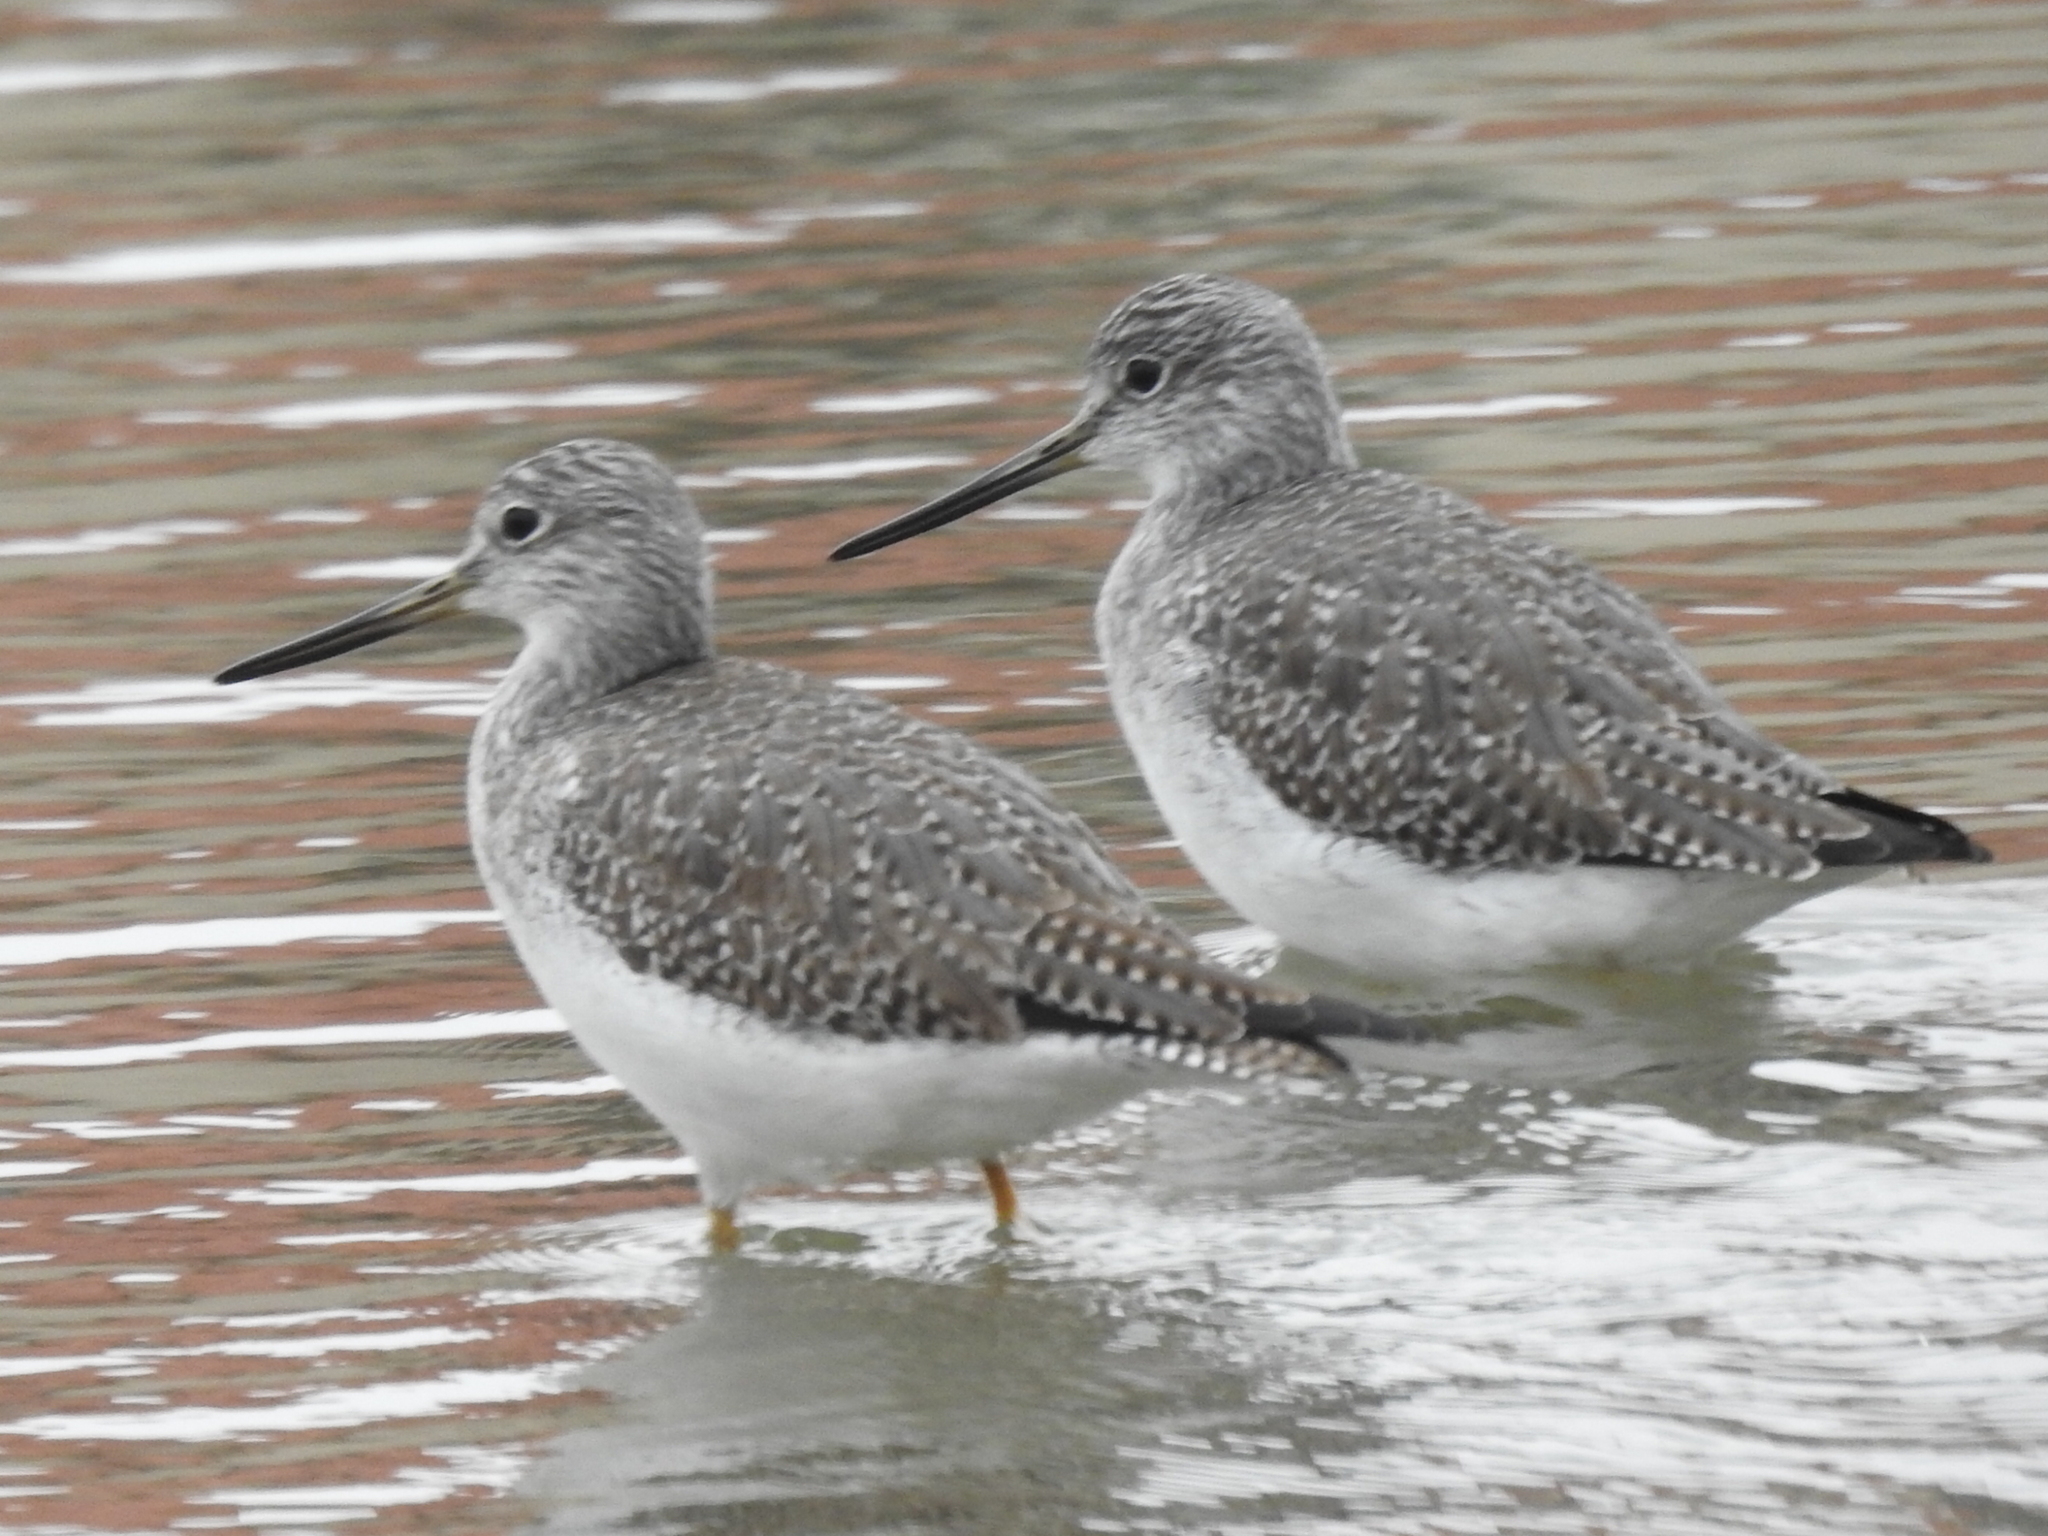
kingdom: Animalia
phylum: Chordata
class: Aves
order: Charadriiformes
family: Scolopacidae
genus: Tringa
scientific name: Tringa melanoleuca
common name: Greater yellowlegs
